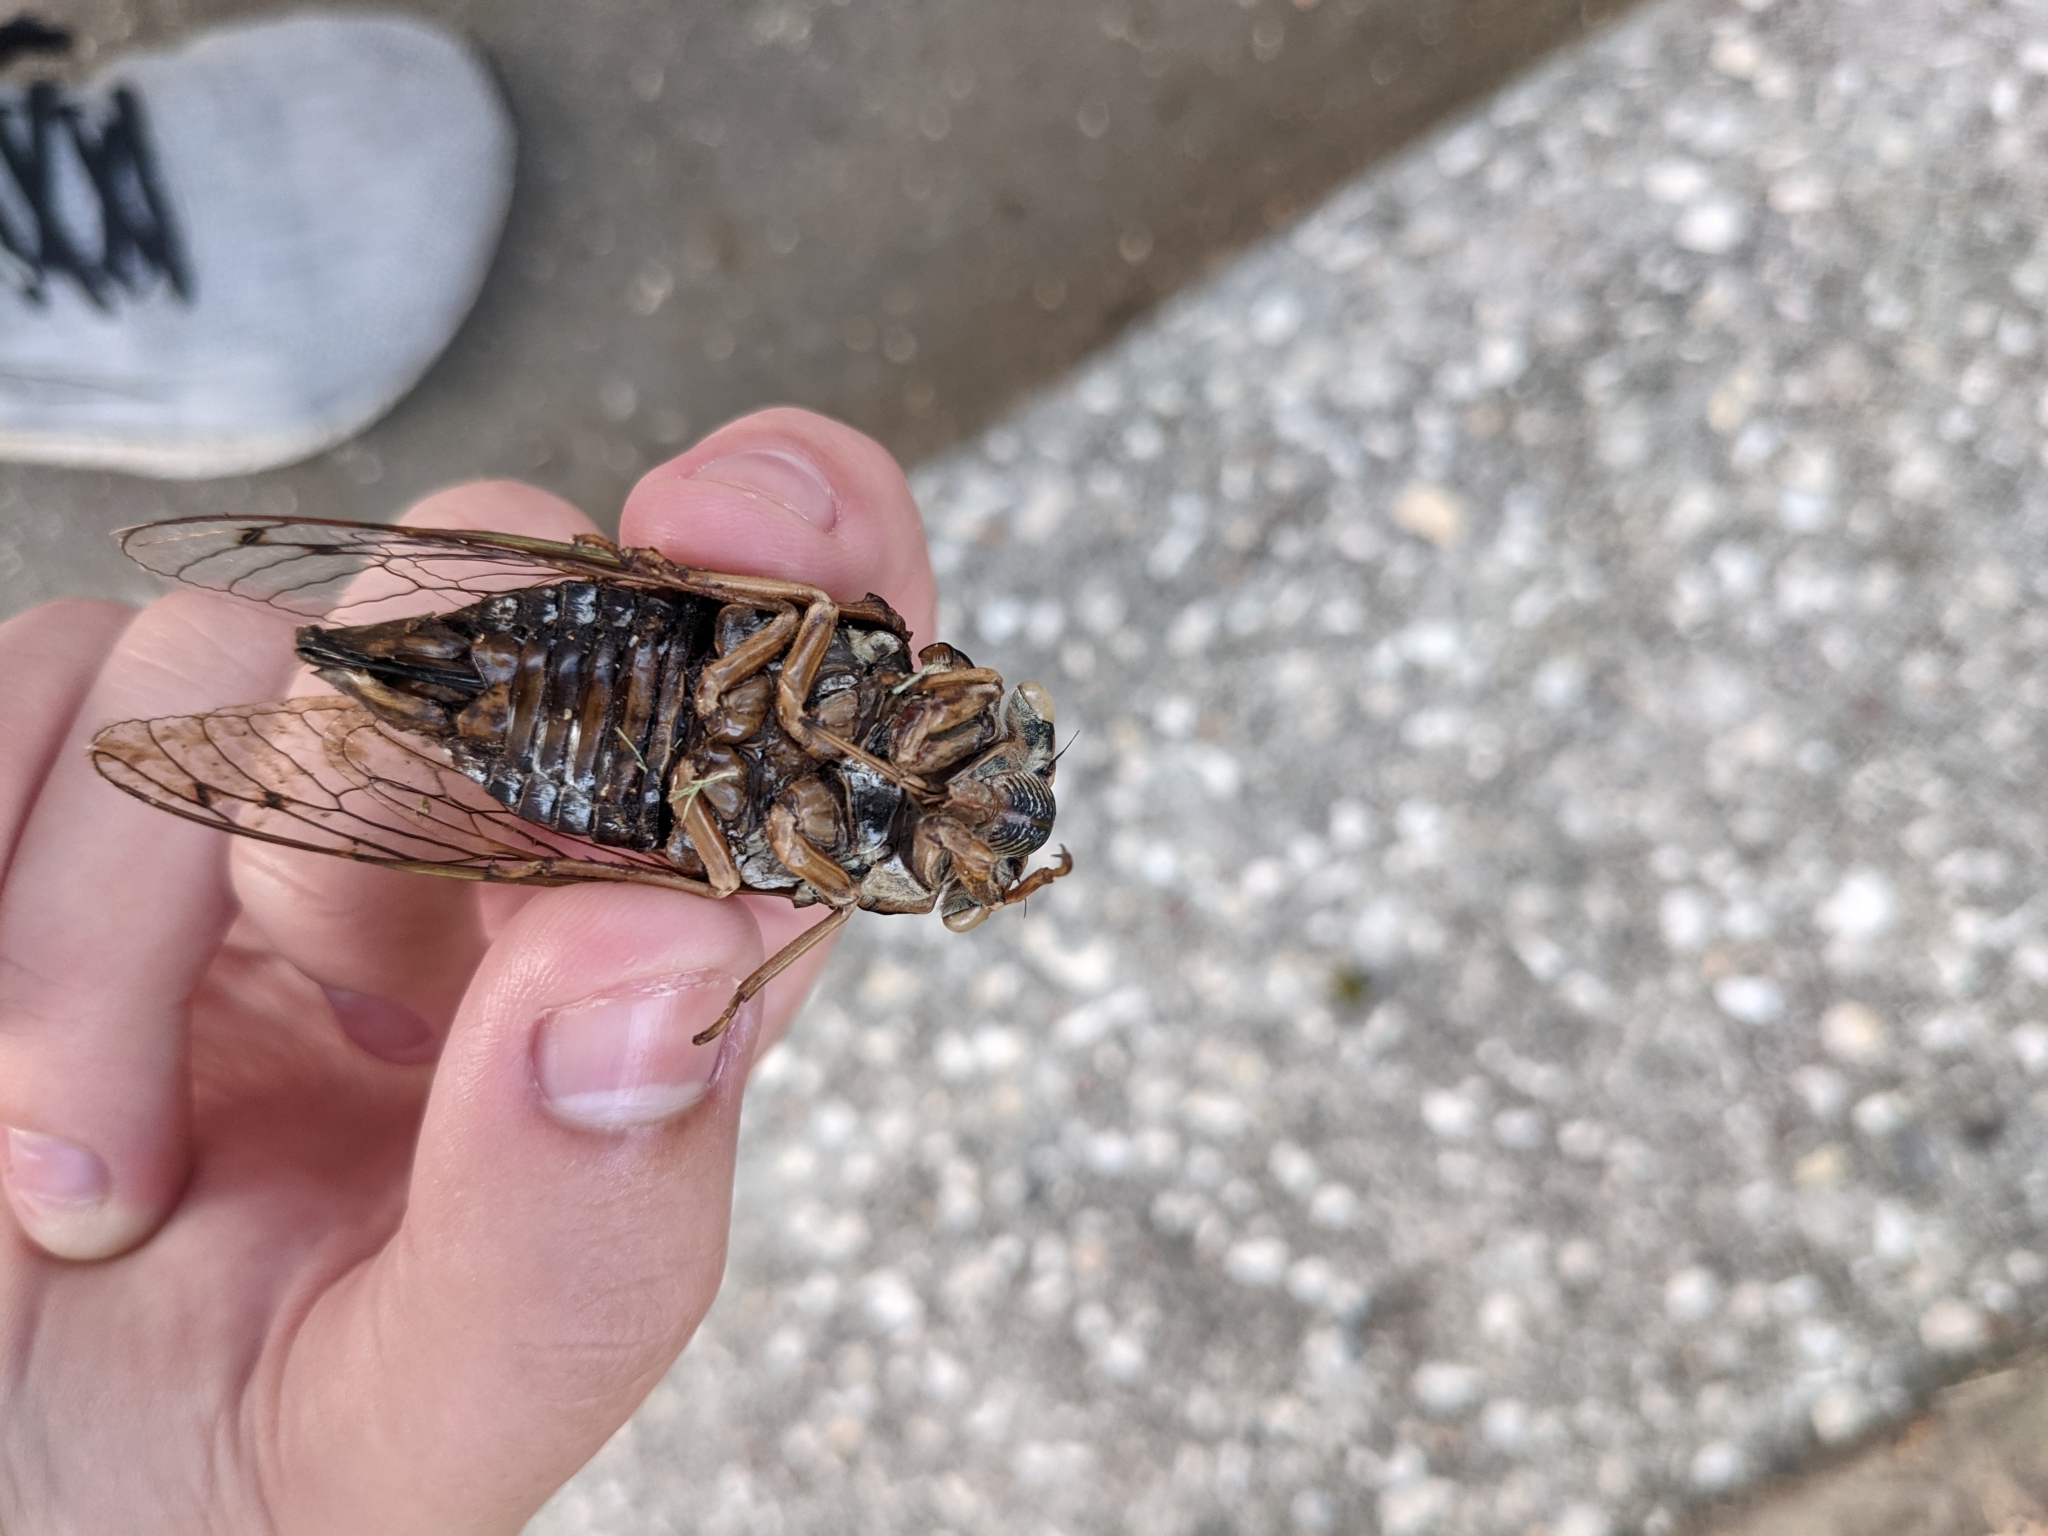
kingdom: Animalia
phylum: Arthropoda
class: Insecta
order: Hemiptera
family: Cicadidae
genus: Megatibicen
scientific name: Megatibicen resh
